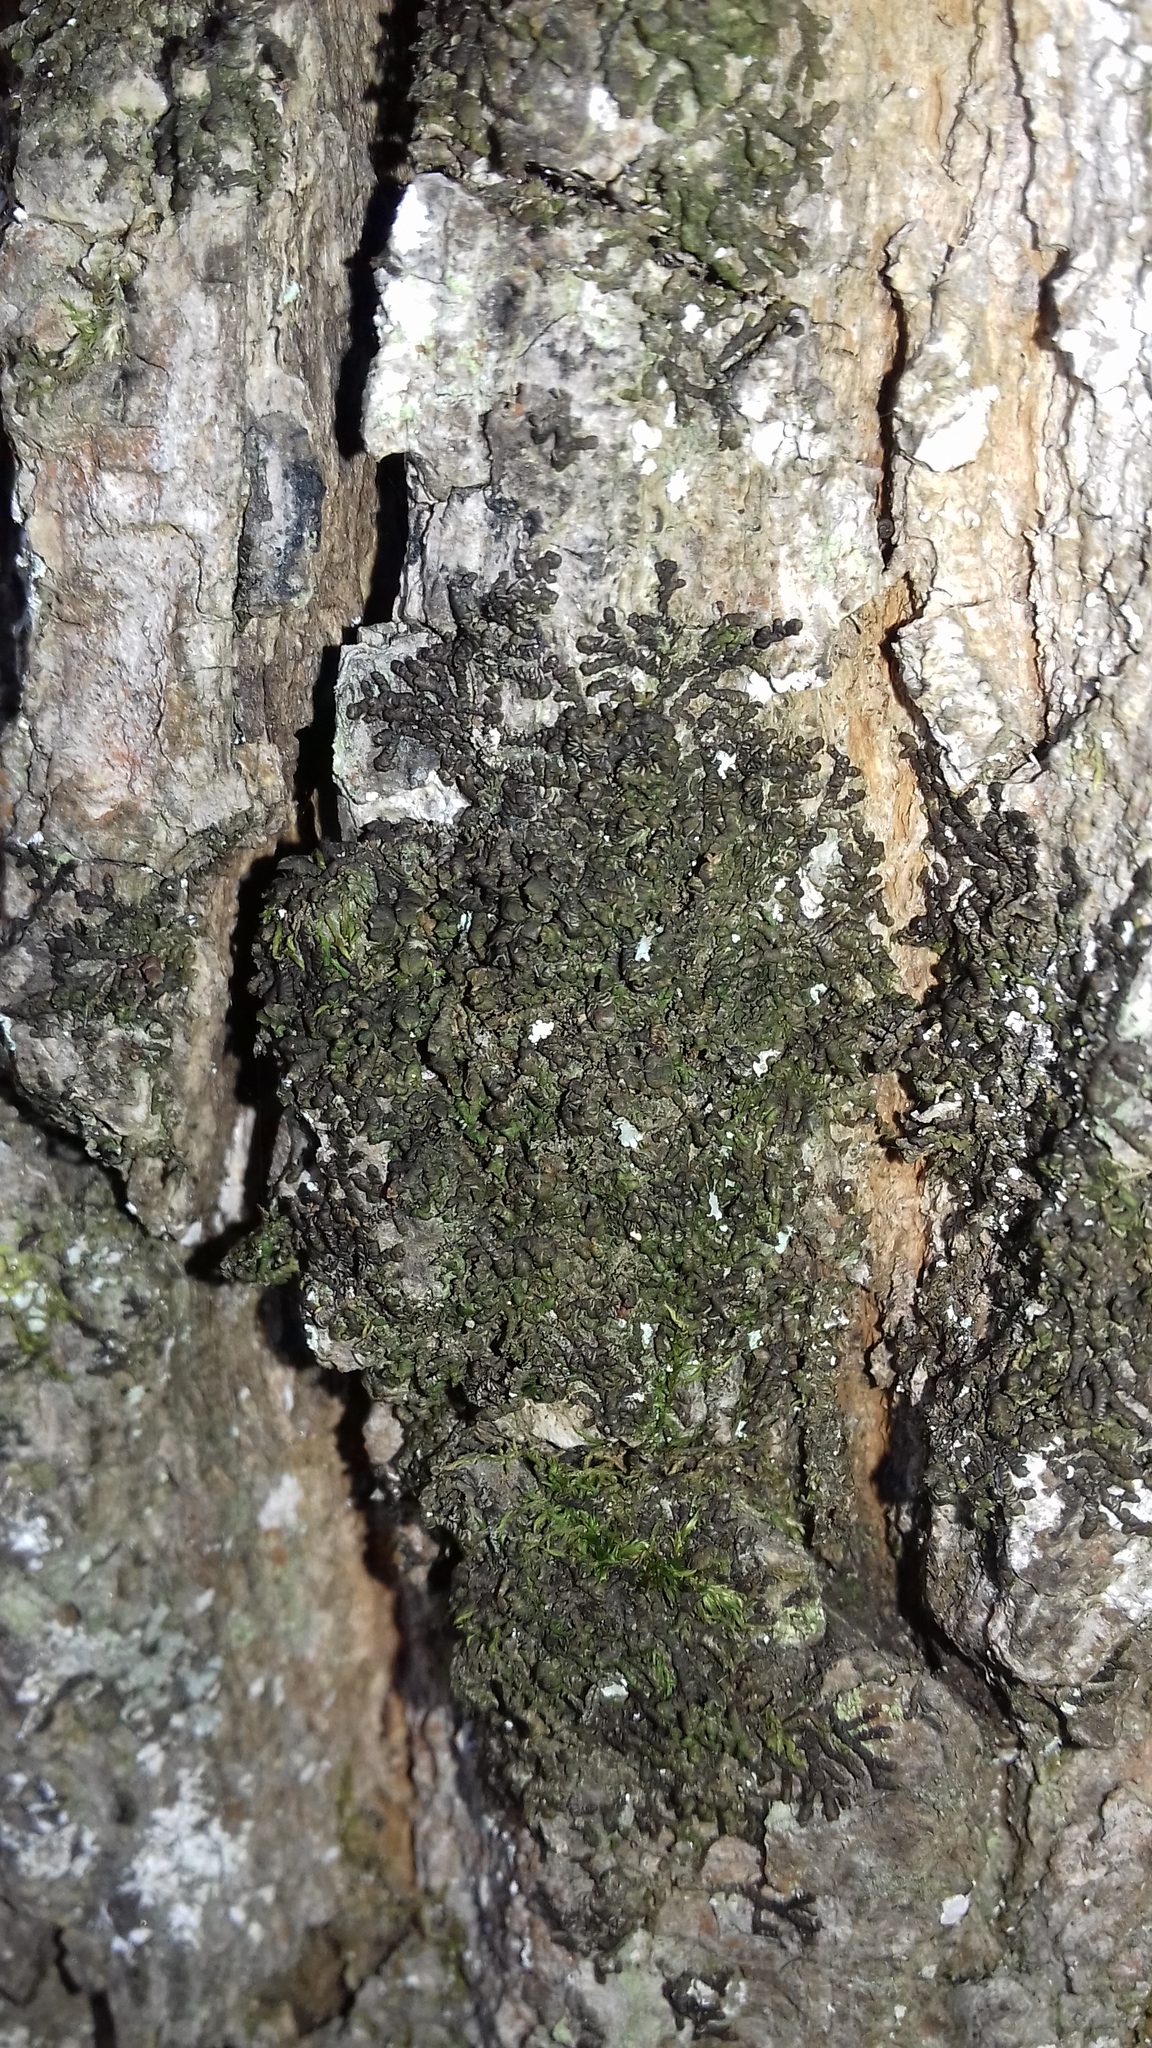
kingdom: Plantae
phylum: Marchantiophyta
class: Jungermanniopsida
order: Porellales
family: Frullaniaceae
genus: Frullania
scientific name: Frullania dilatata
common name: Dilated scalewort
